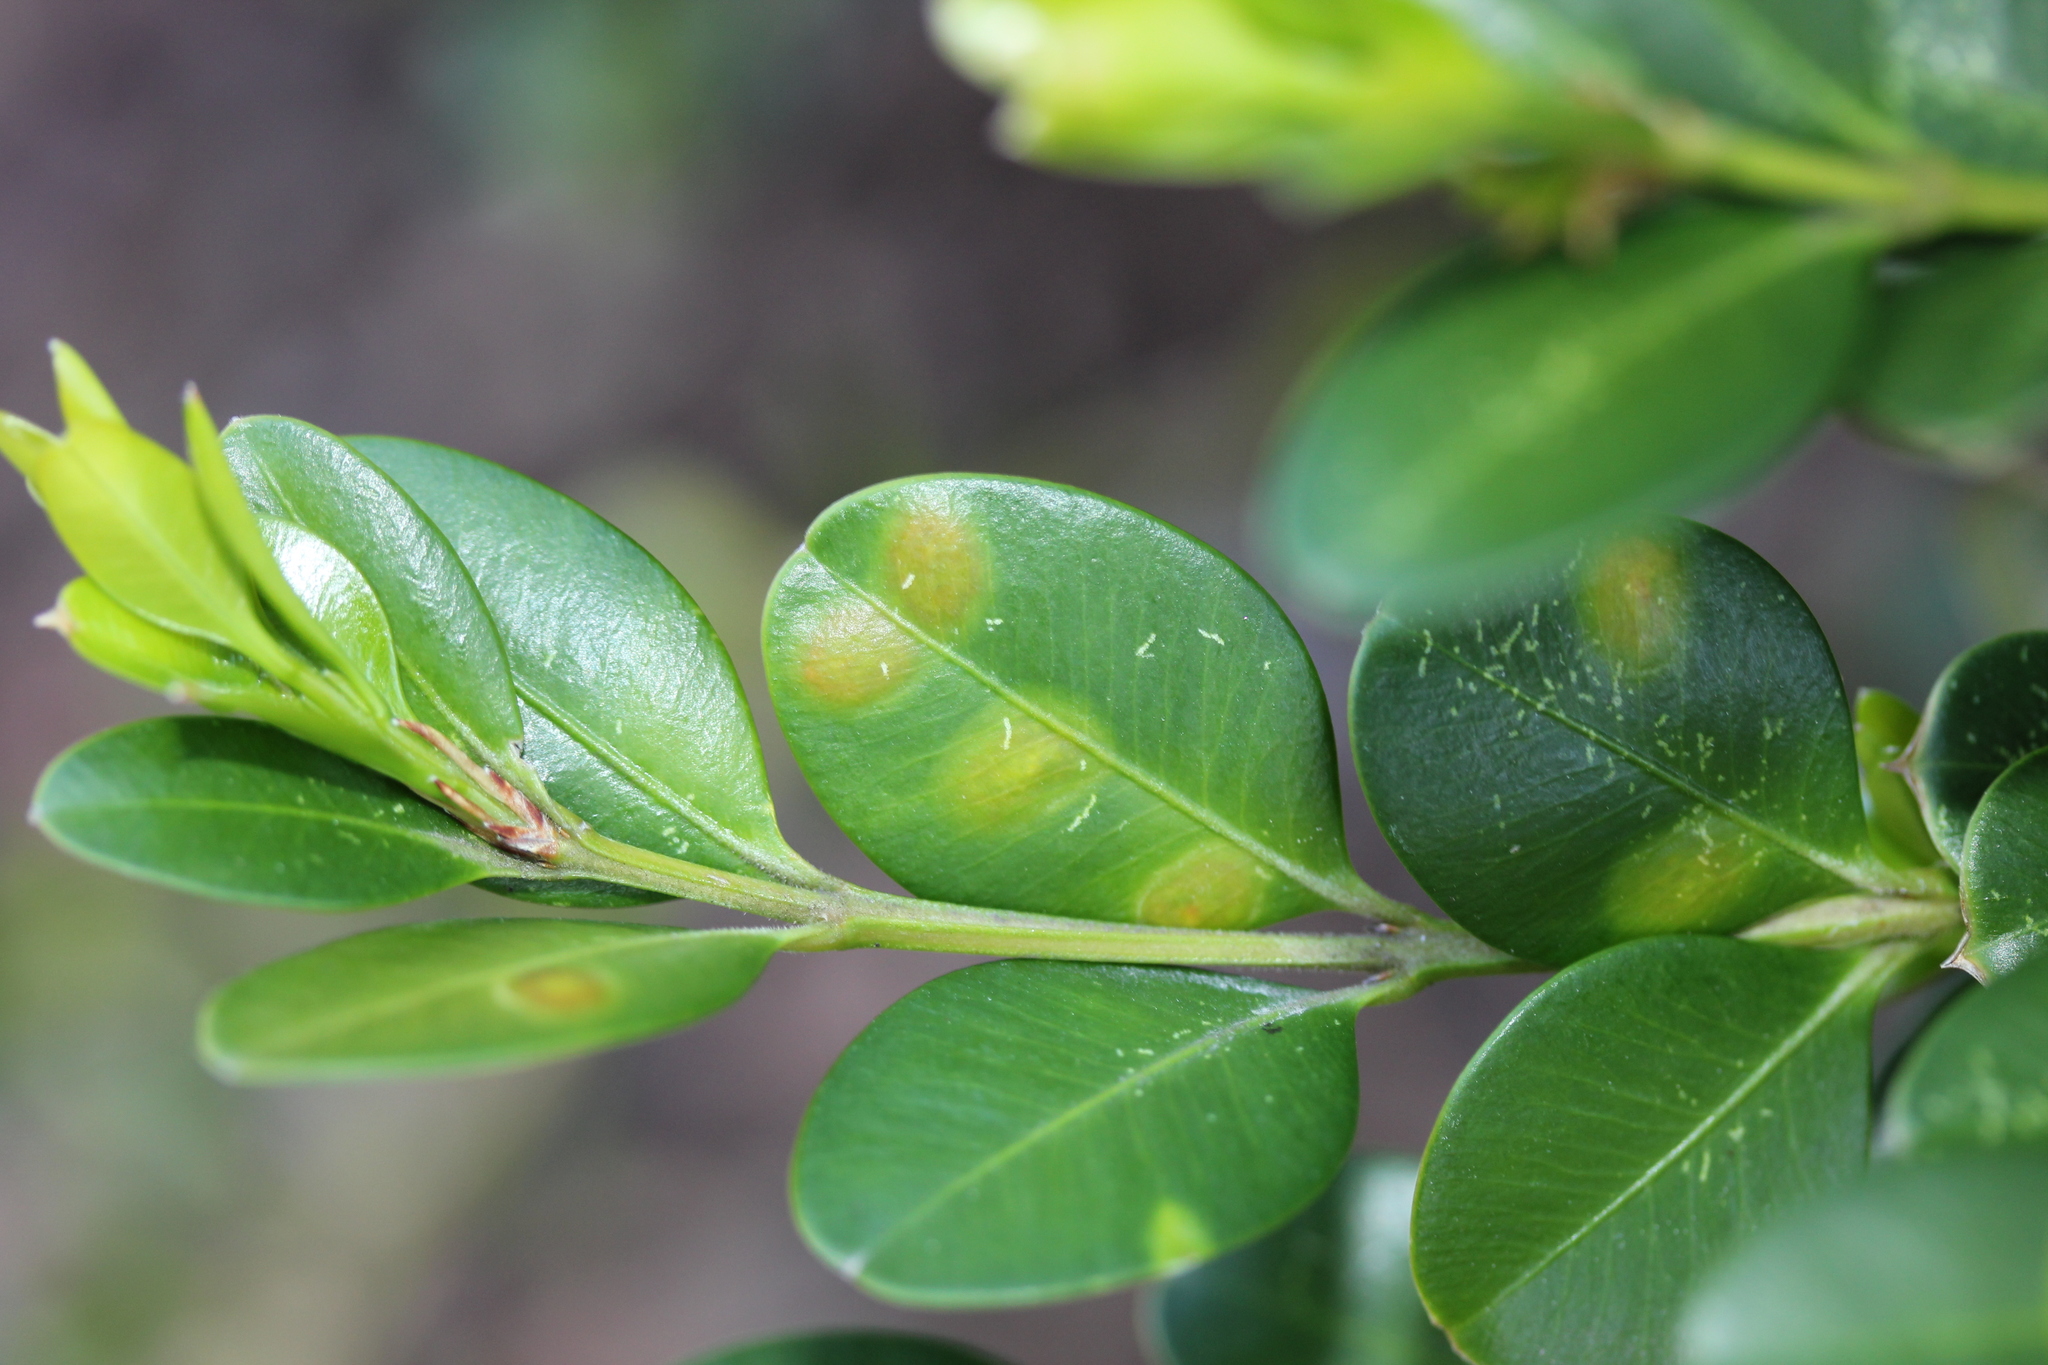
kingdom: Animalia
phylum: Arthropoda
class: Insecta
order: Diptera
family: Cecidomyiidae
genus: Monarthropalpus
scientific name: Monarthropalpus flavus
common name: Boxwood leafminer
